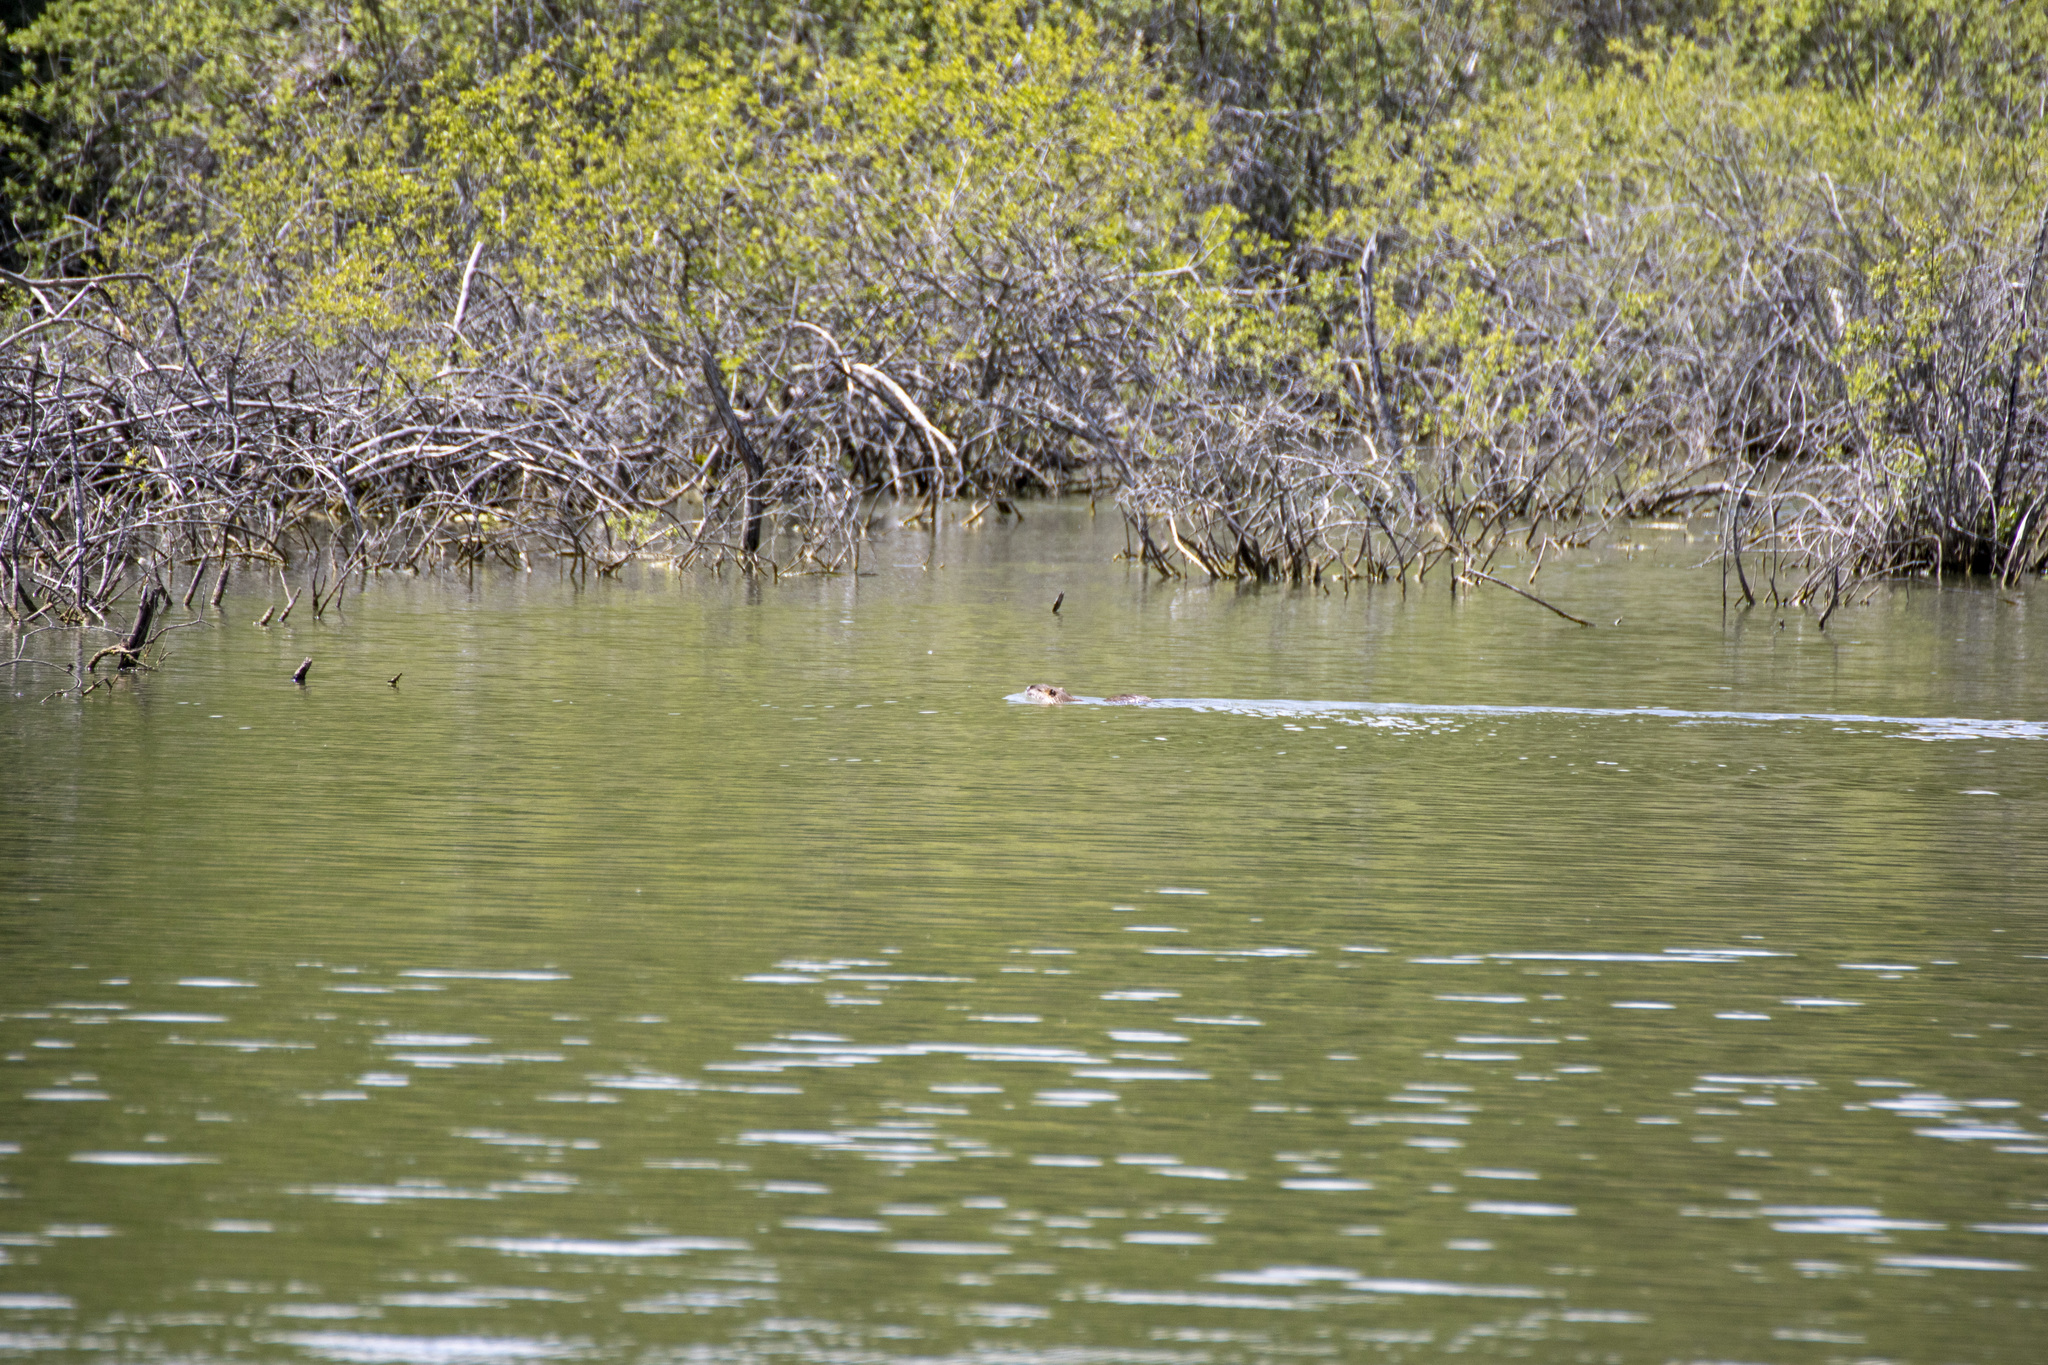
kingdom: Animalia
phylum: Chordata
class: Mammalia
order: Rodentia
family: Myocastoridae
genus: Myocastor
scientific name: Myocastor coypus
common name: Coypu
